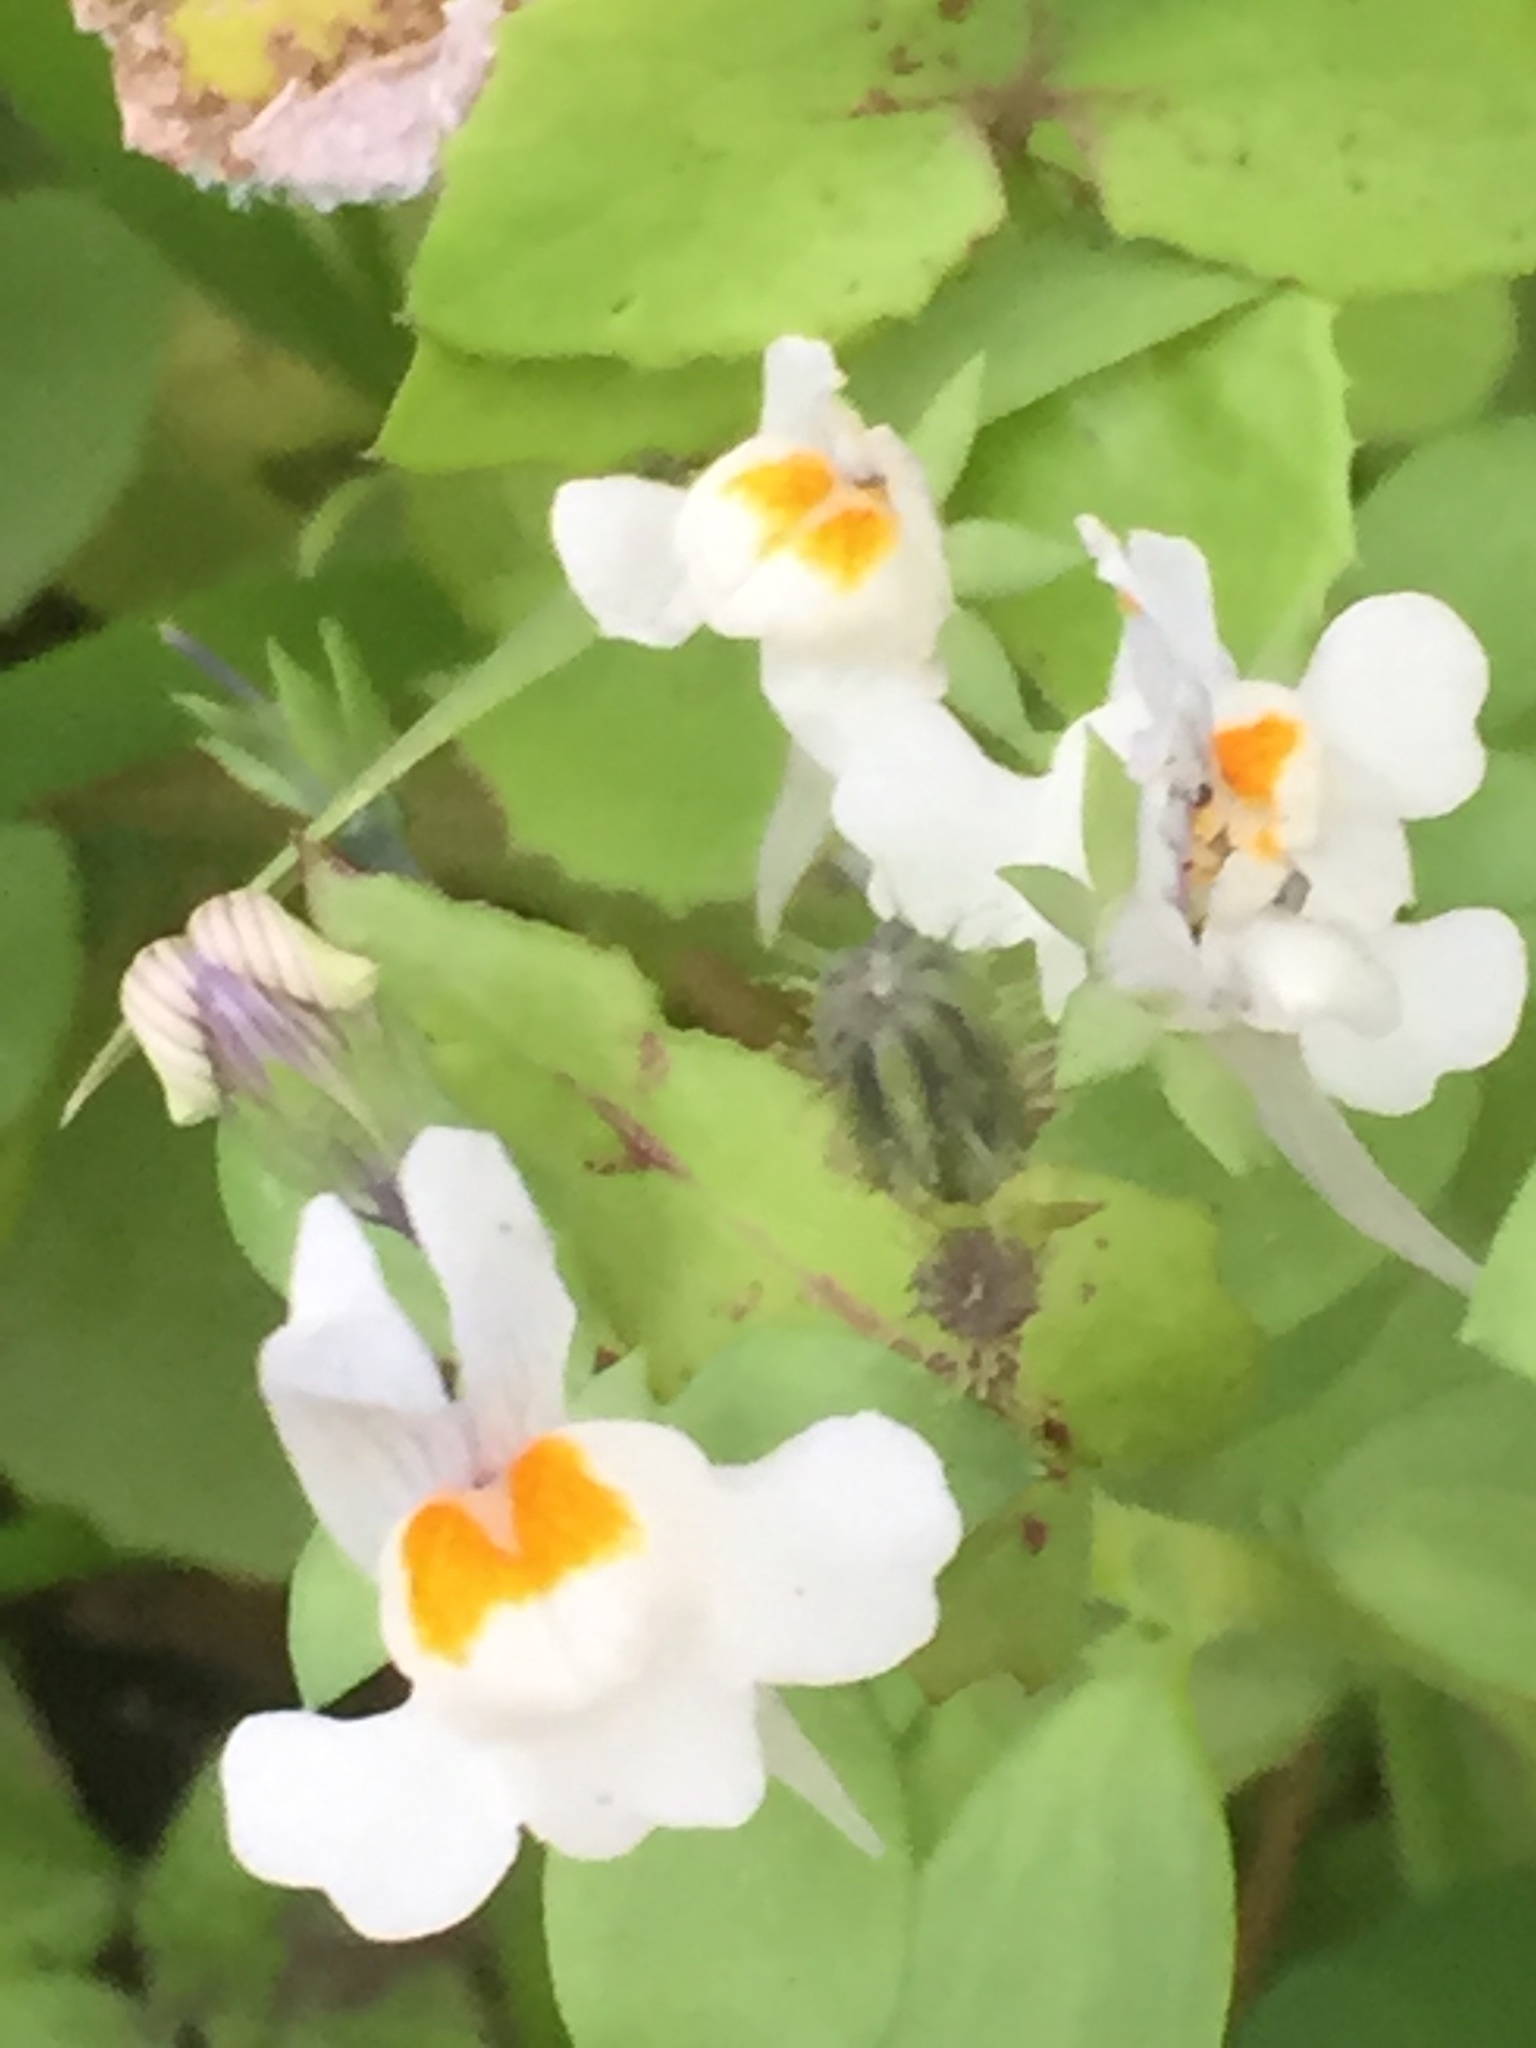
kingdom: Plantae
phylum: Tracheophyta
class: Magnoliopsida
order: Lamiales
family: Plantaginaceae
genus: Linaria
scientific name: Linaria reflexa
